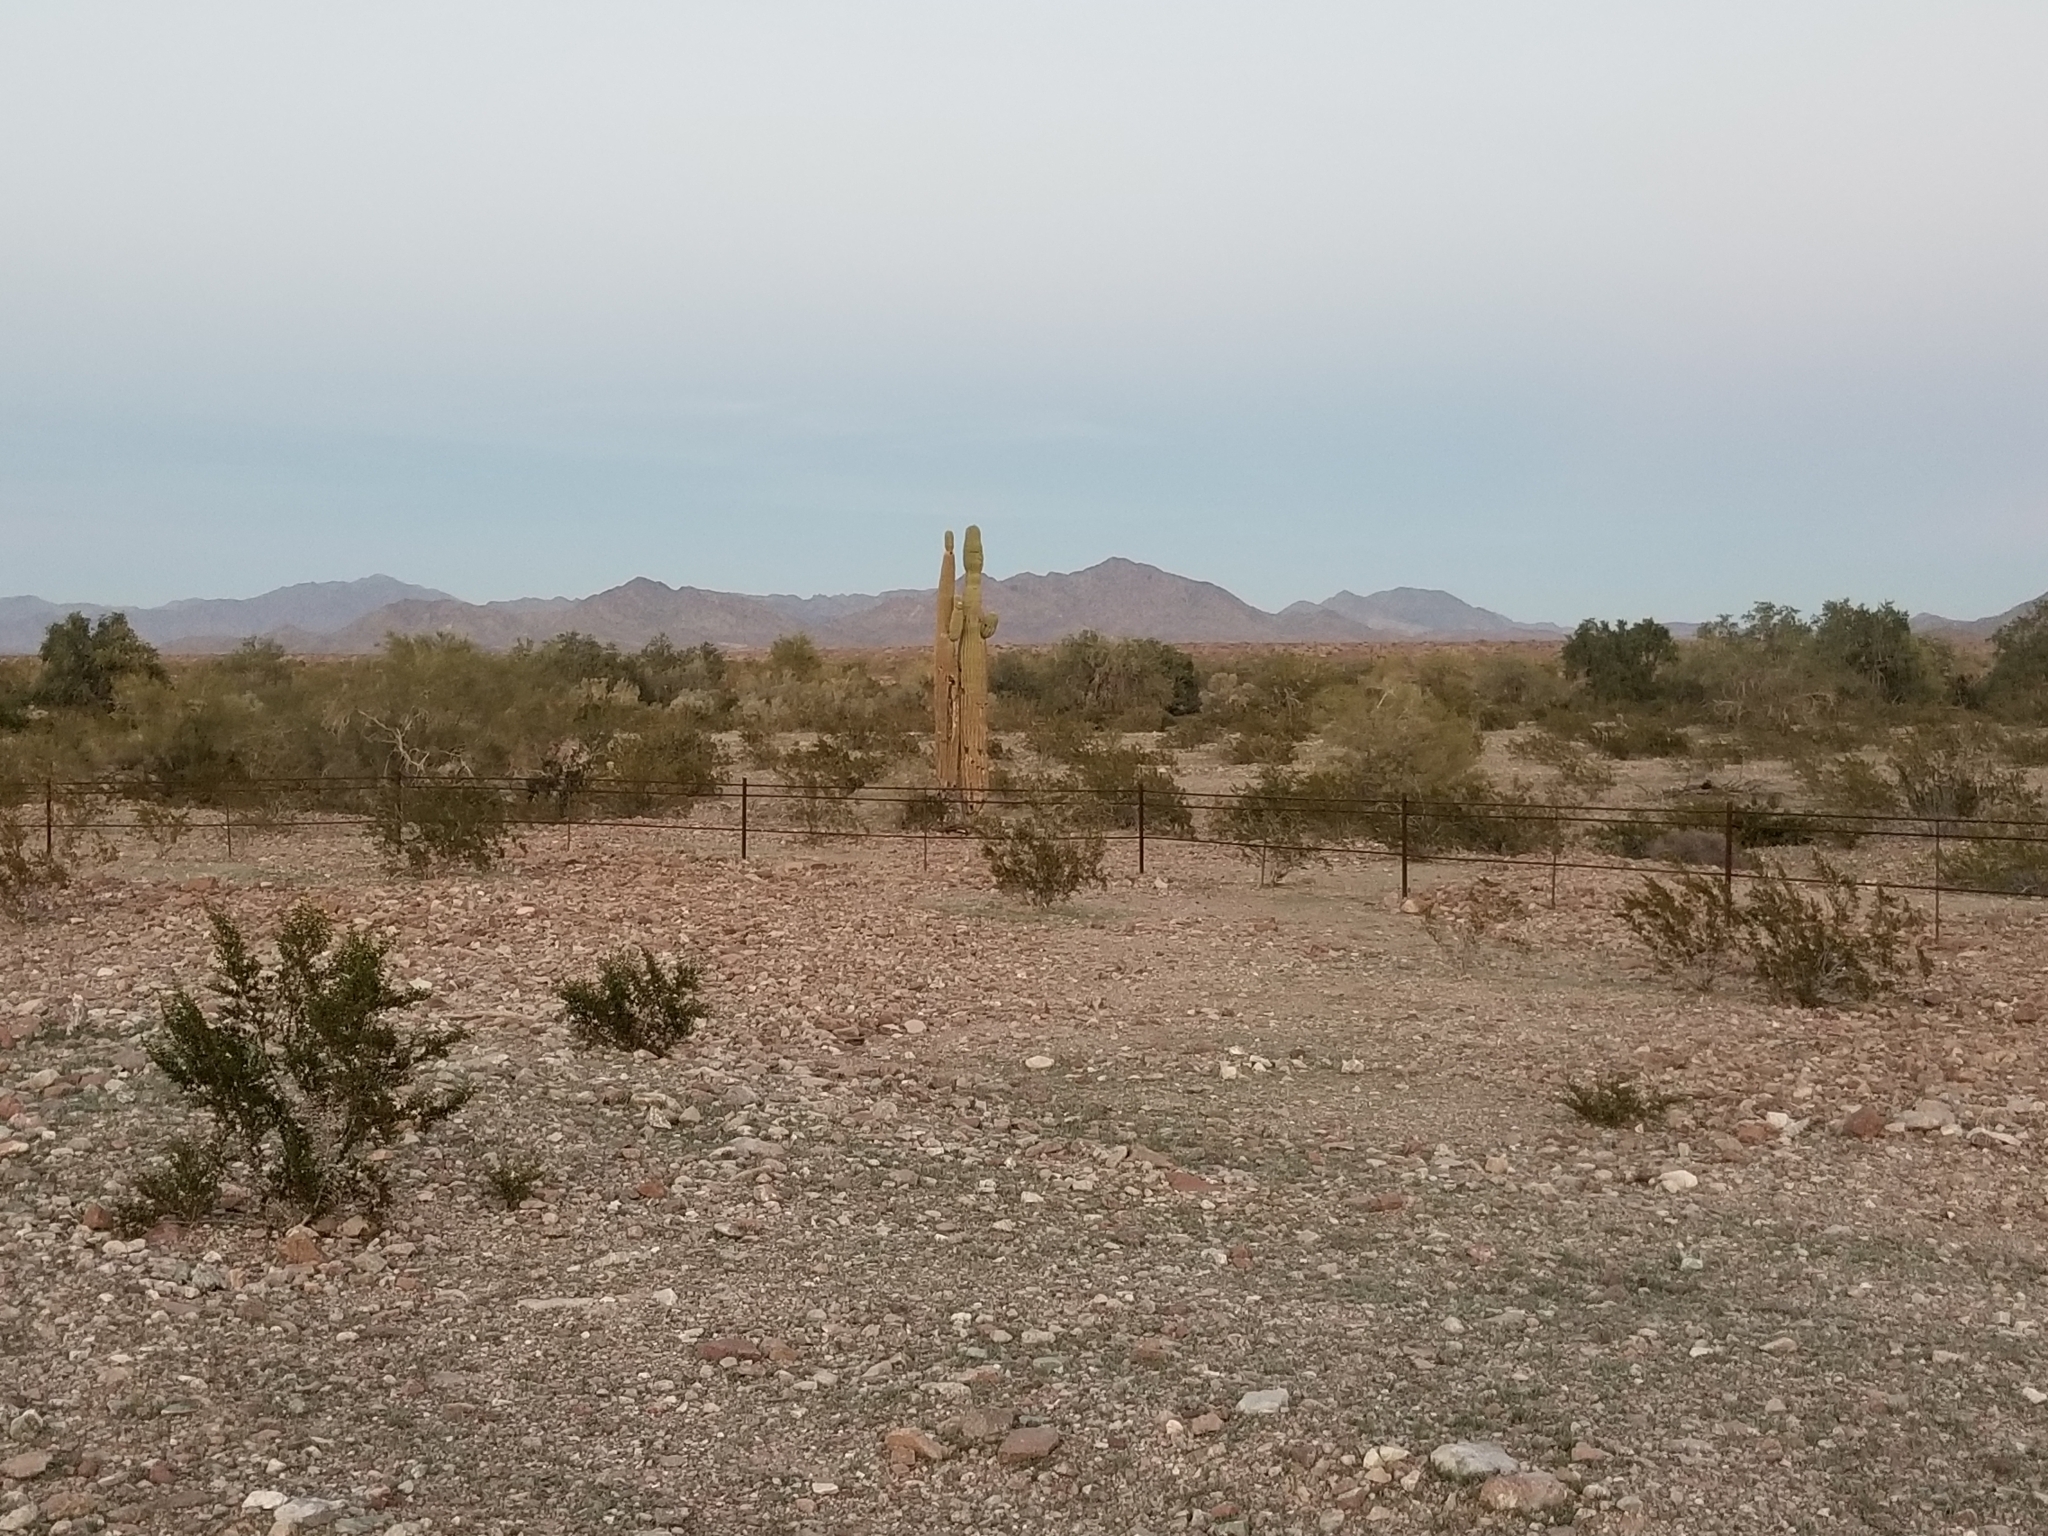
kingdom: Plantae
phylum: Tracheophyta
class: Magnoliopsida
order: Caryophyllales
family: Cactaceae
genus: Carnegiea
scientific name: Carnegiea gigantea
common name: Saguaro
